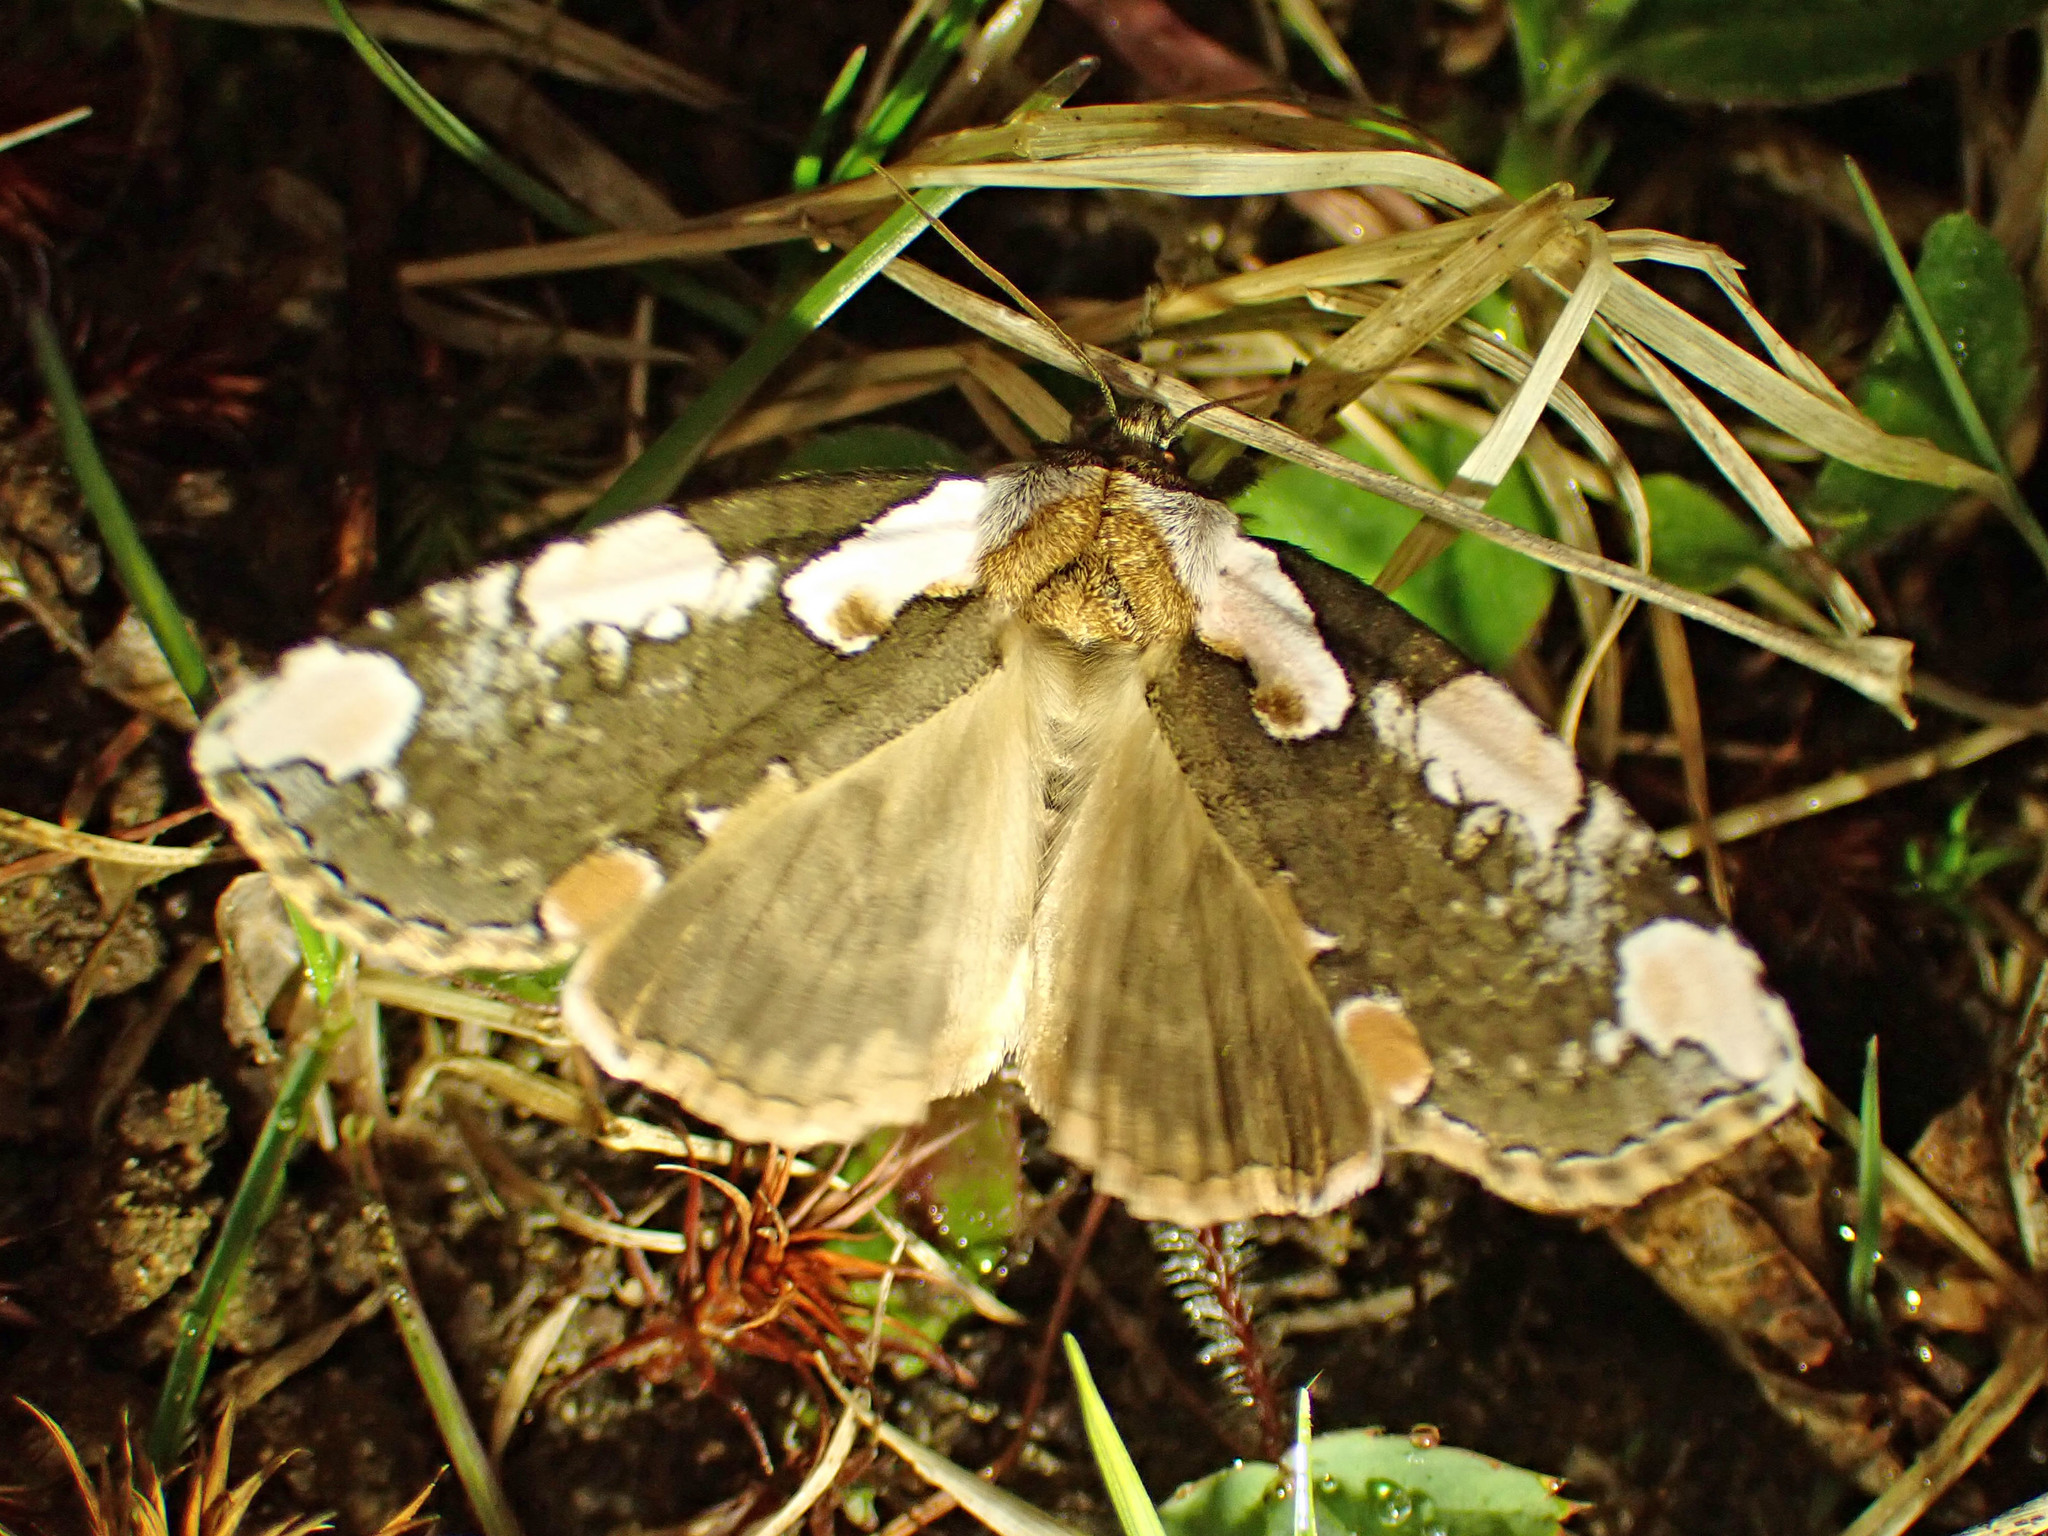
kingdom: Animalia
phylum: Arthropoda
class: Insecta
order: Lepidoptera
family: Drepanidae
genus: Euthyatira
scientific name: Euthyatira pudens
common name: Dogwood thyatirid moth
